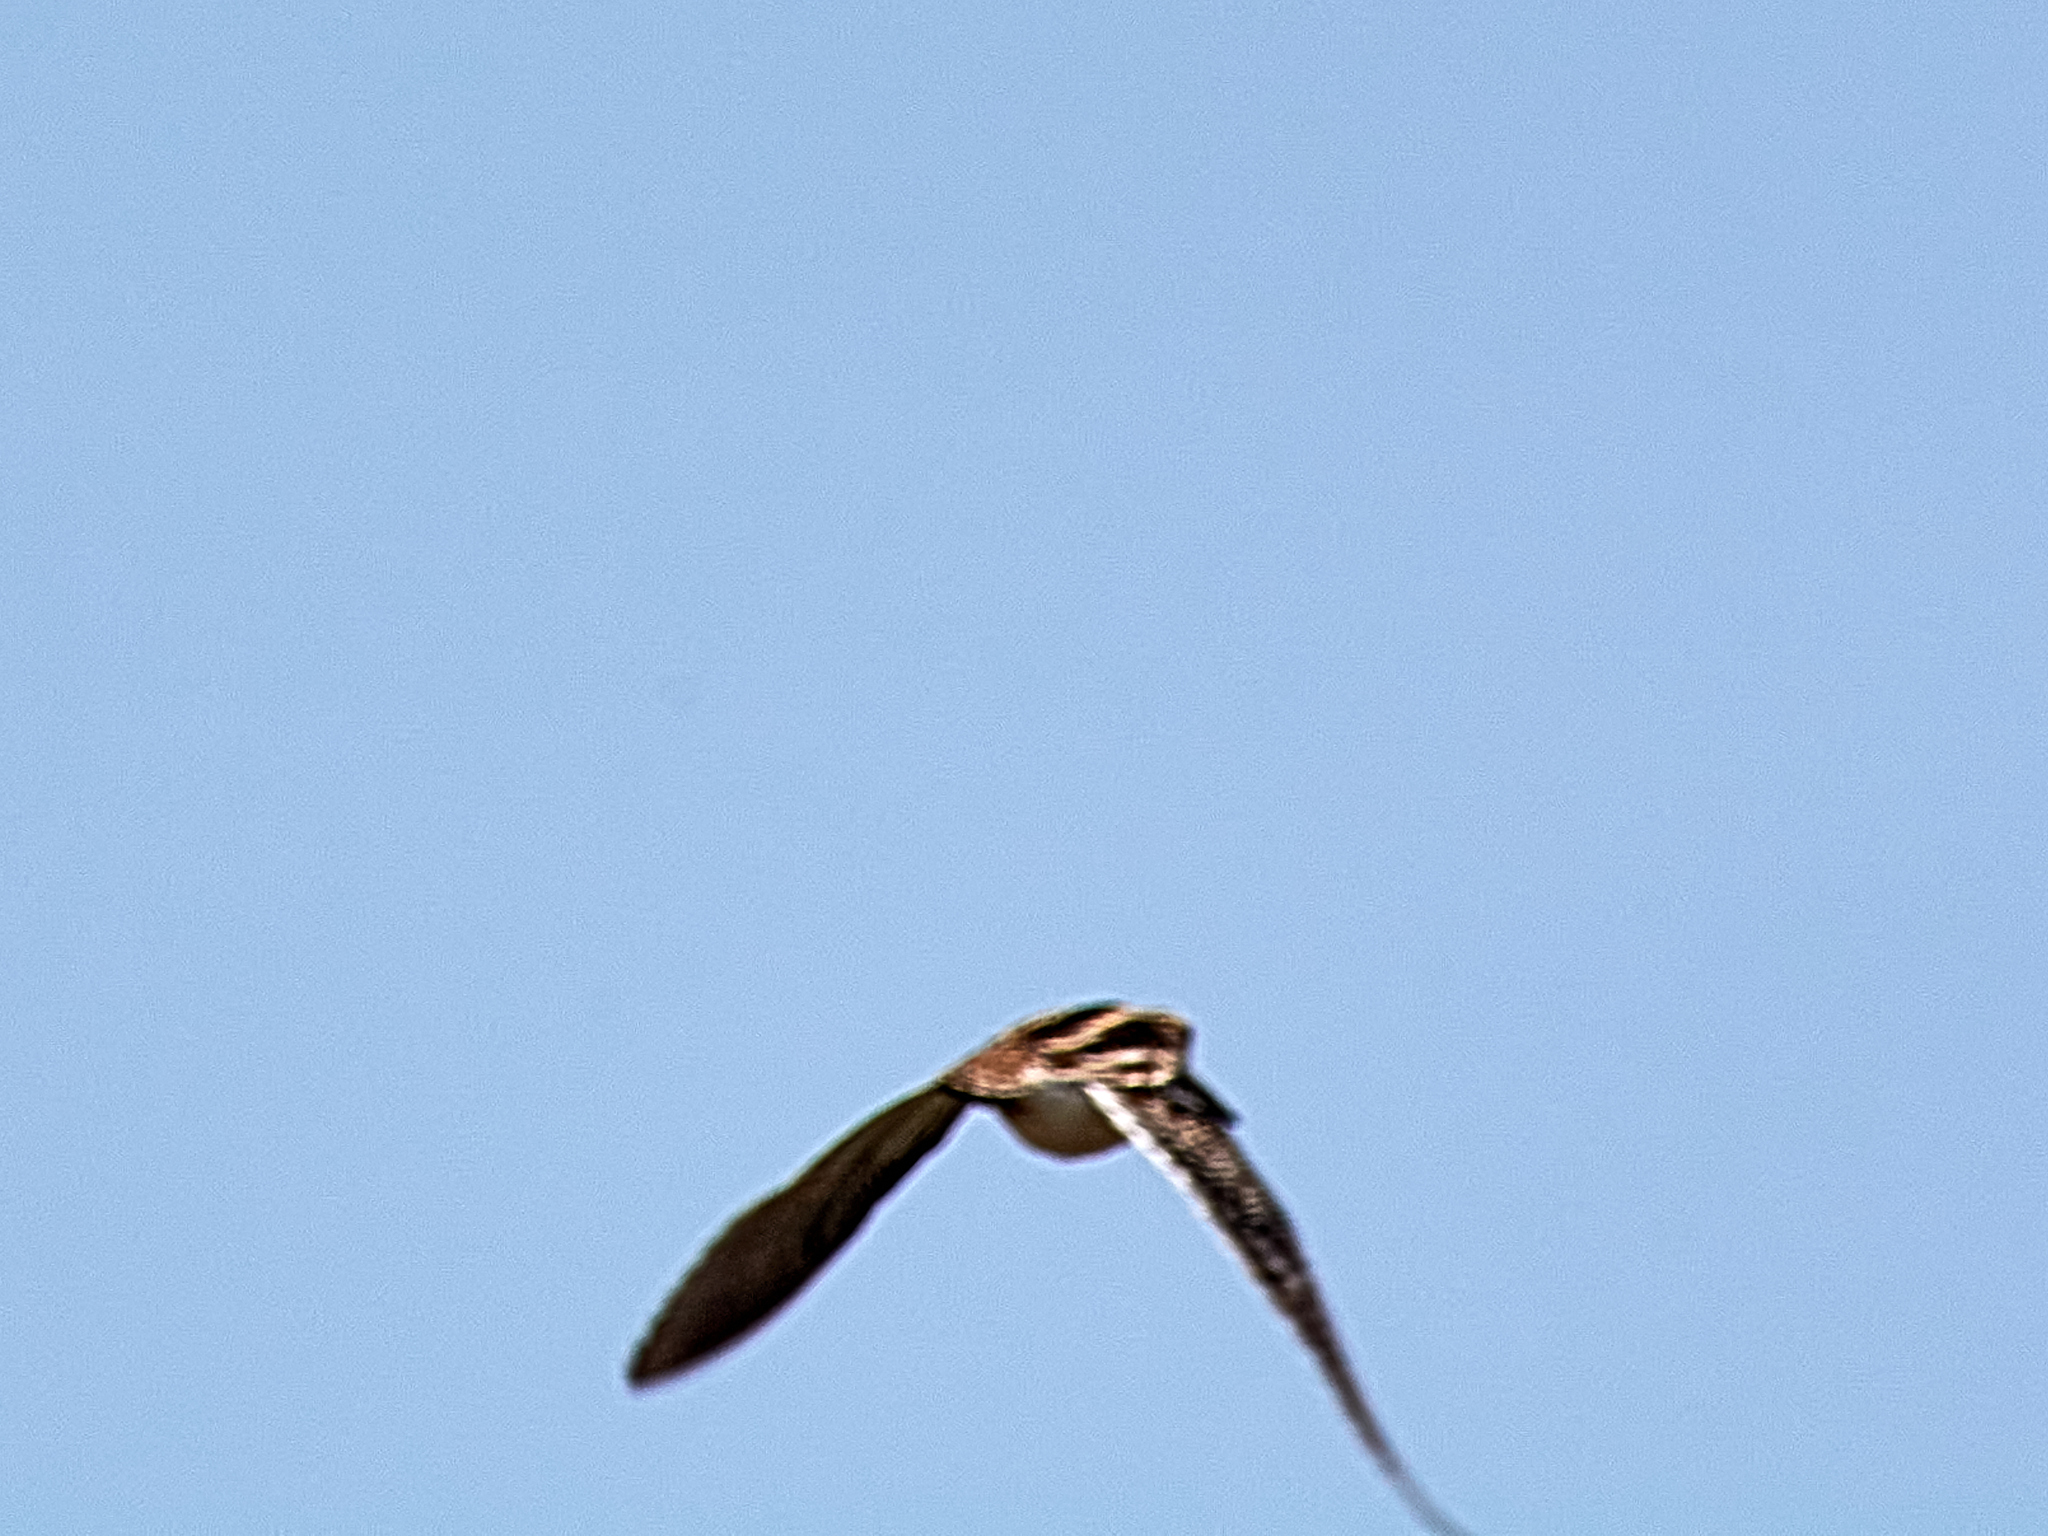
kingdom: Animalia
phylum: Chordata
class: Aves
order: Charadriiformes
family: Scolopacidae
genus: Gallinago
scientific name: Gallinago gallinago
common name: Common snipe
